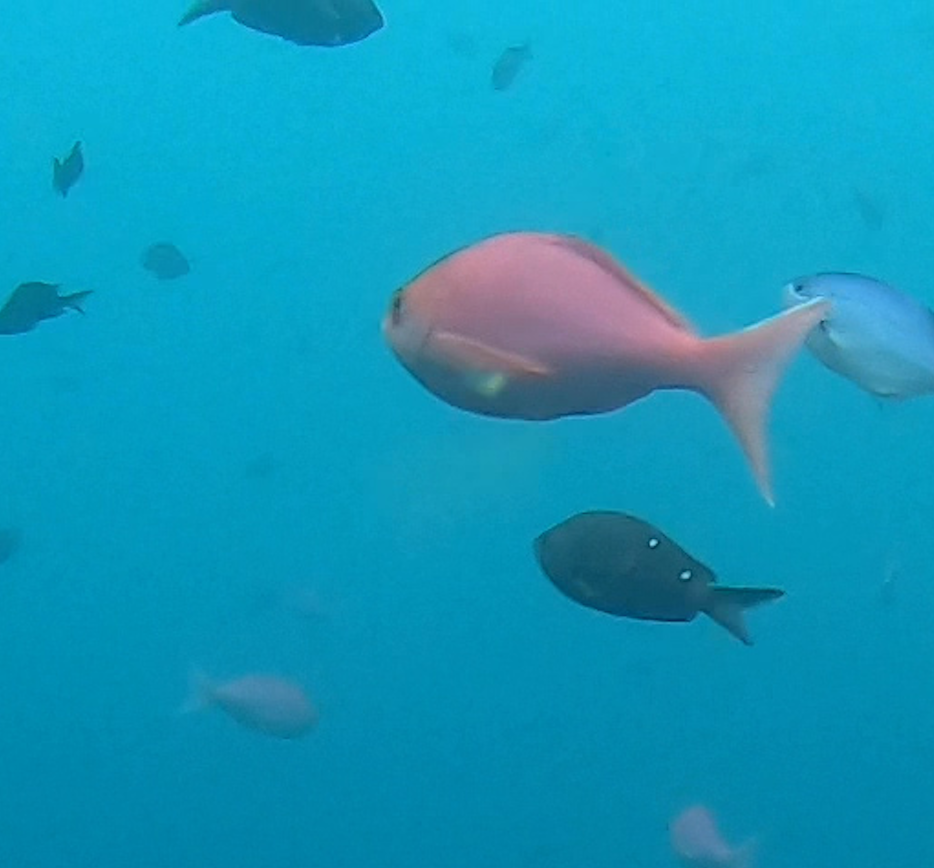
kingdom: Animalia
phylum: Chordata
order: Perciformes
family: Serranidae
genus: Caprodon
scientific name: Caprodon longimanus
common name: Pink maomao
